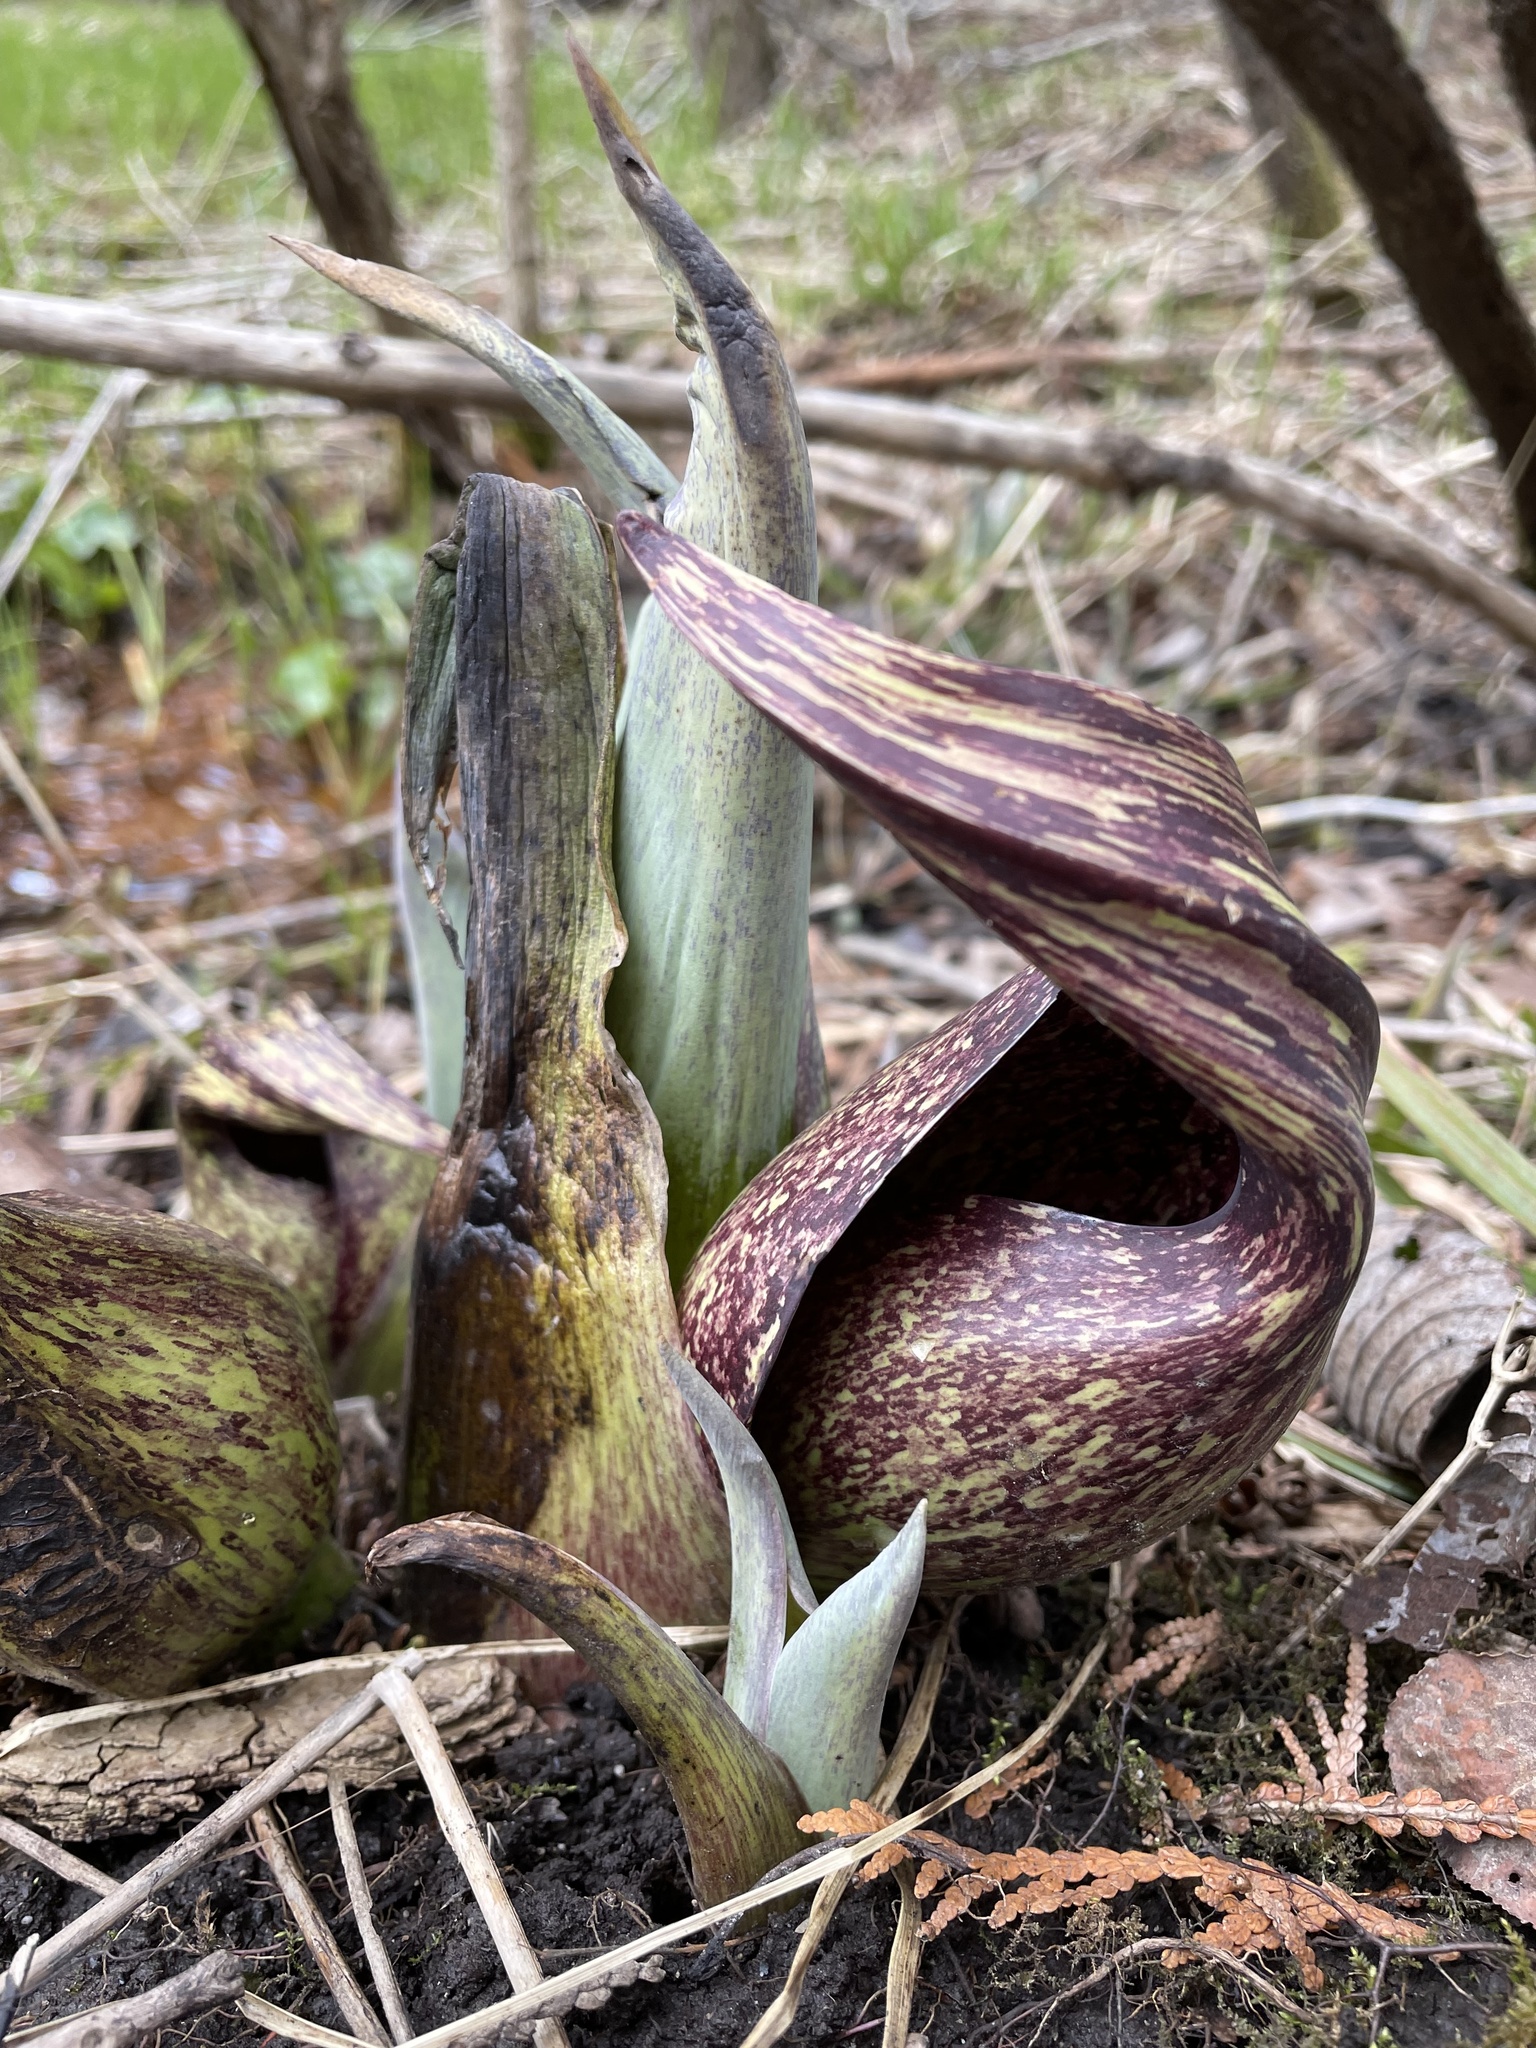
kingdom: Plantae
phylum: Tracheophyta
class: Liliopsida
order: Alismatales
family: Araceae
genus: Symplocarpus
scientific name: Symplocarpus foetidus
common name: Eastern skunk cabbage
